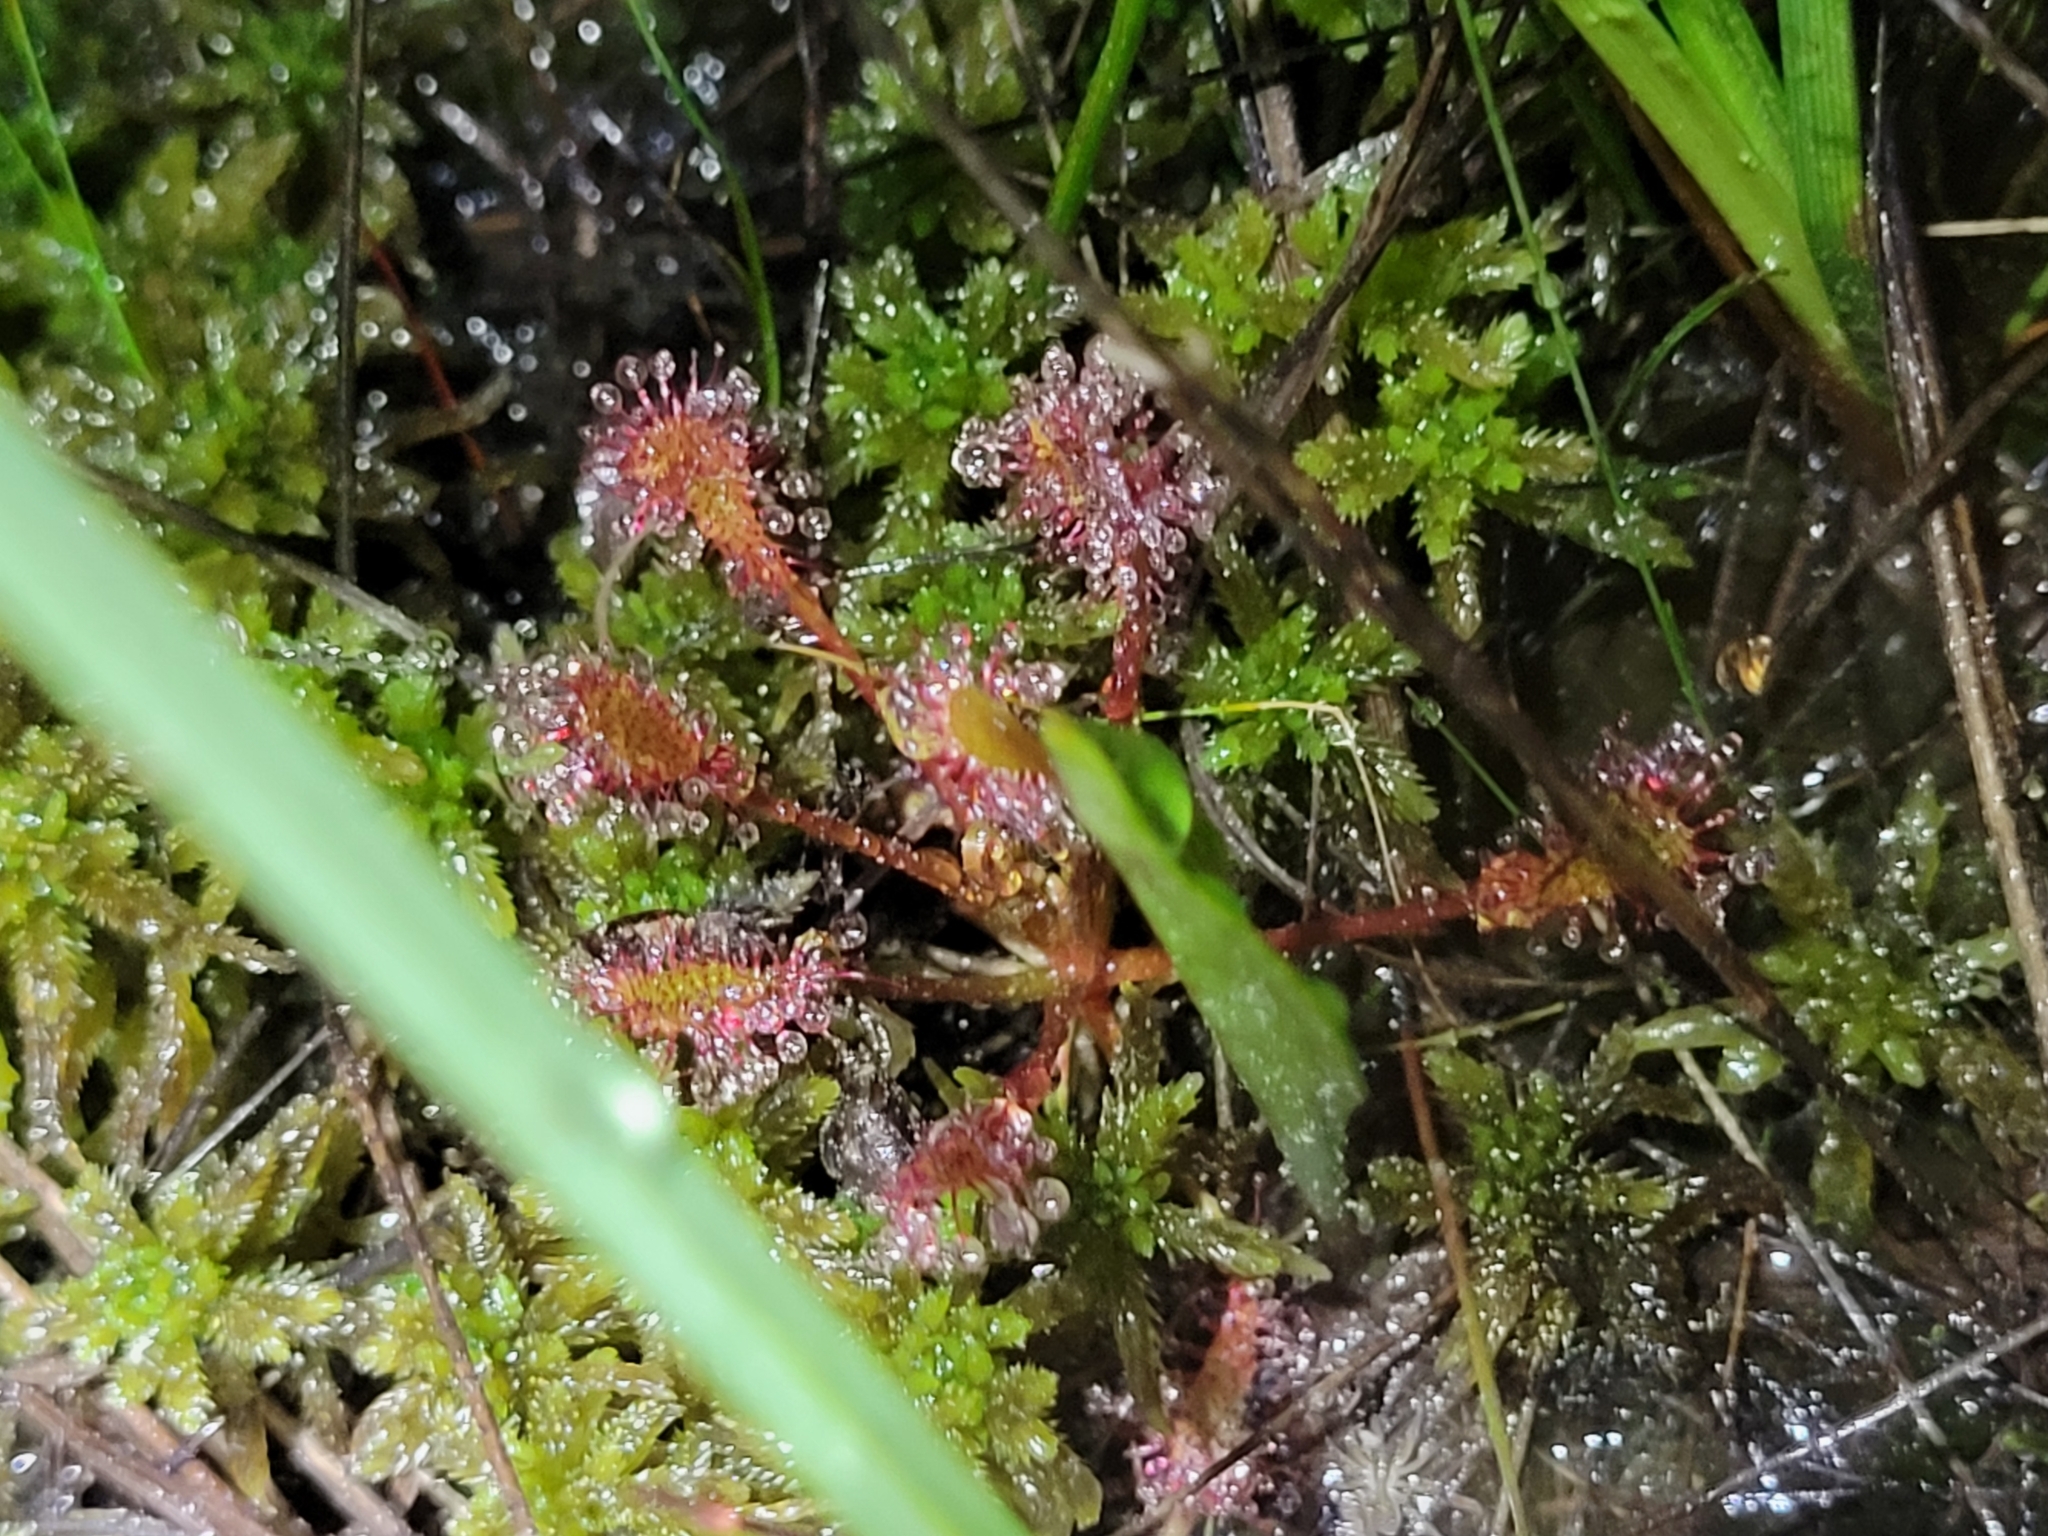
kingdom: Plantae
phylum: Tracheophyta
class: Magnoliopsida
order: Caryophyllales
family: Droseraceae
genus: Drosera
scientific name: Drosera intermedia
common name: Oblong-leaved sundew
